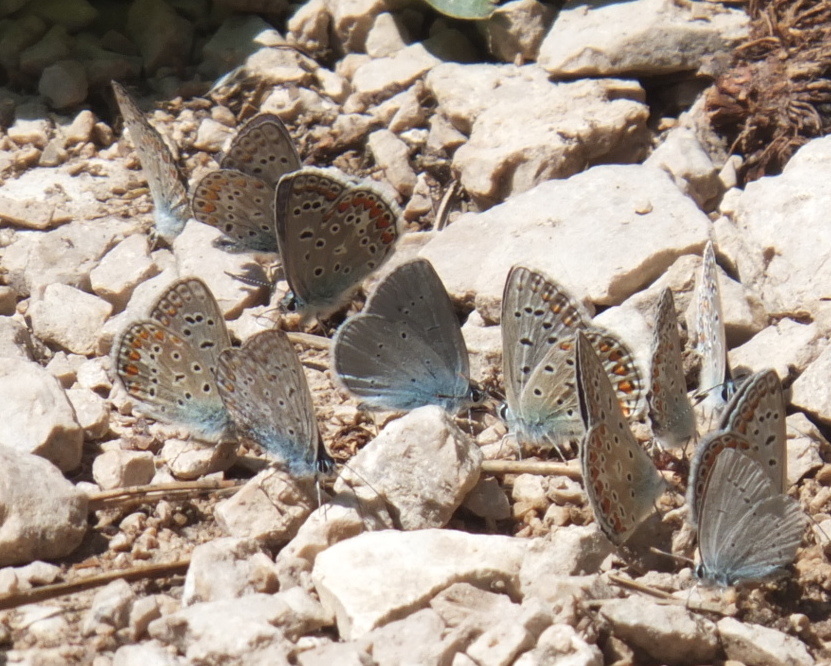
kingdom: Animalia
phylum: Arthropoda
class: Insecta
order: Lepidoptera
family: Lycaenidae
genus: Everes
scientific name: Everes sebrus
